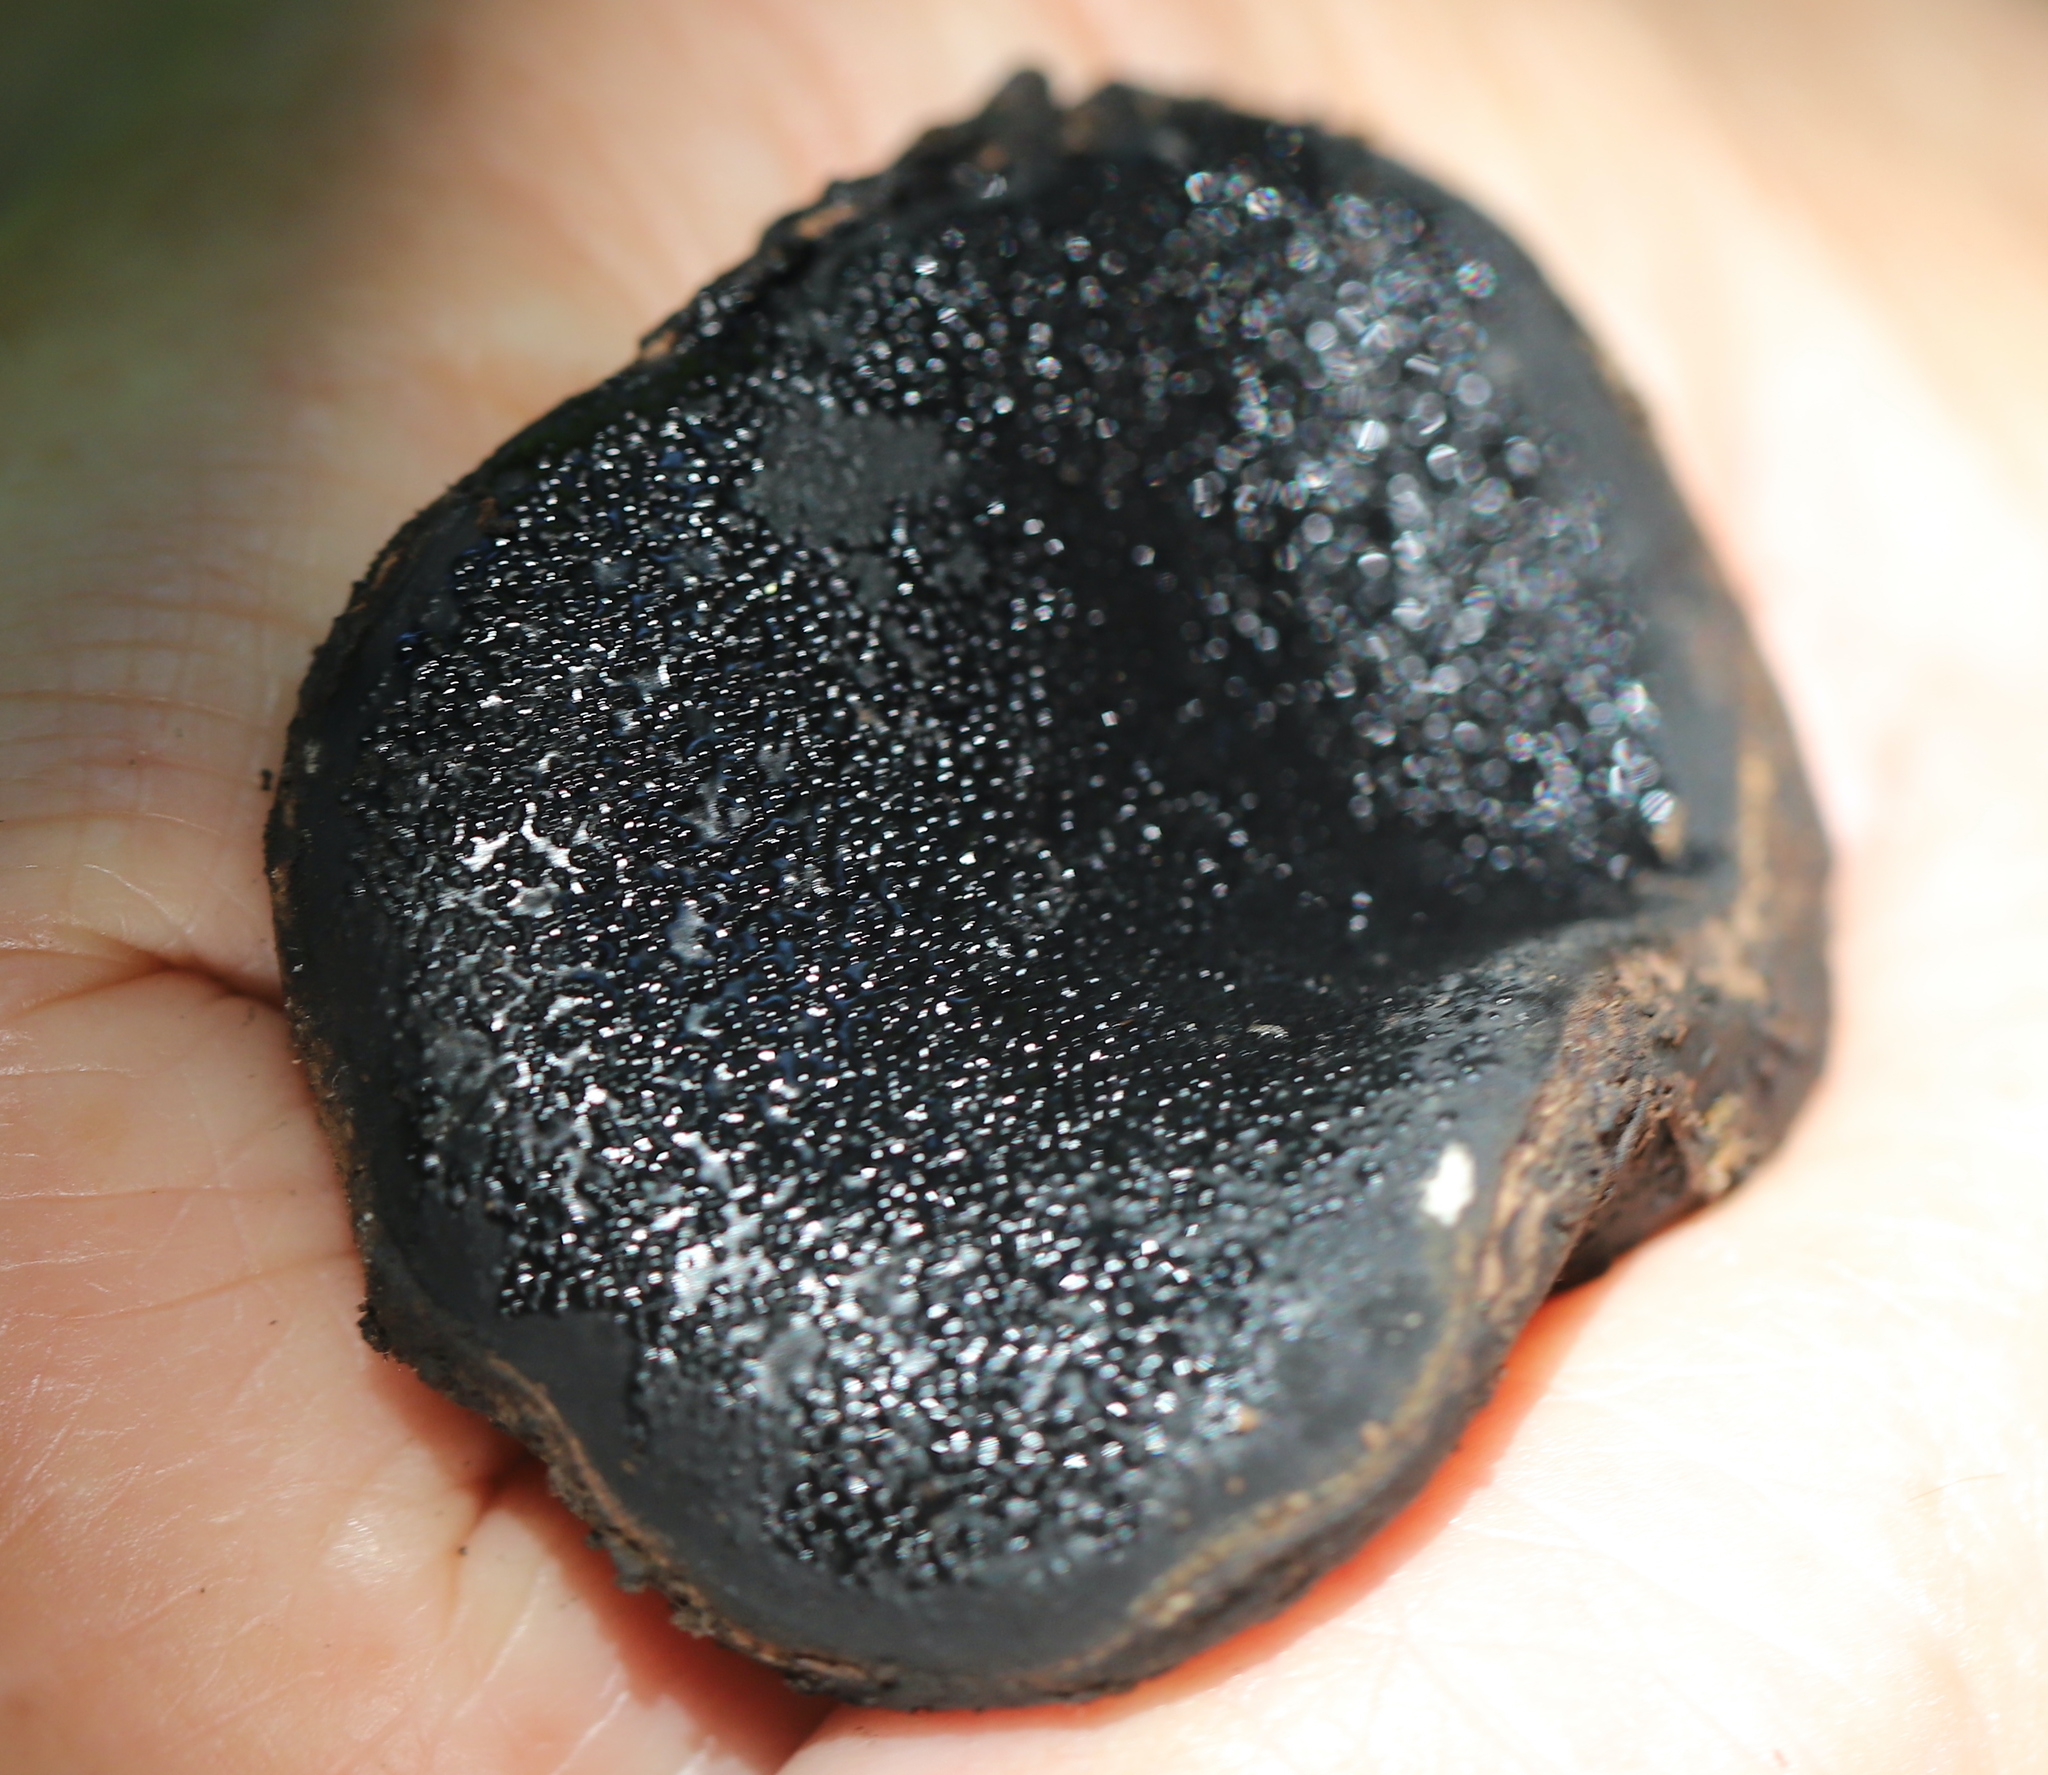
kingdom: Fungi
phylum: Ascomycota
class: Sordariomycetes
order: Boliniales
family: Boliniaceae
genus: Camarops
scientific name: Camarops petersii
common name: Dog's nose fungus
